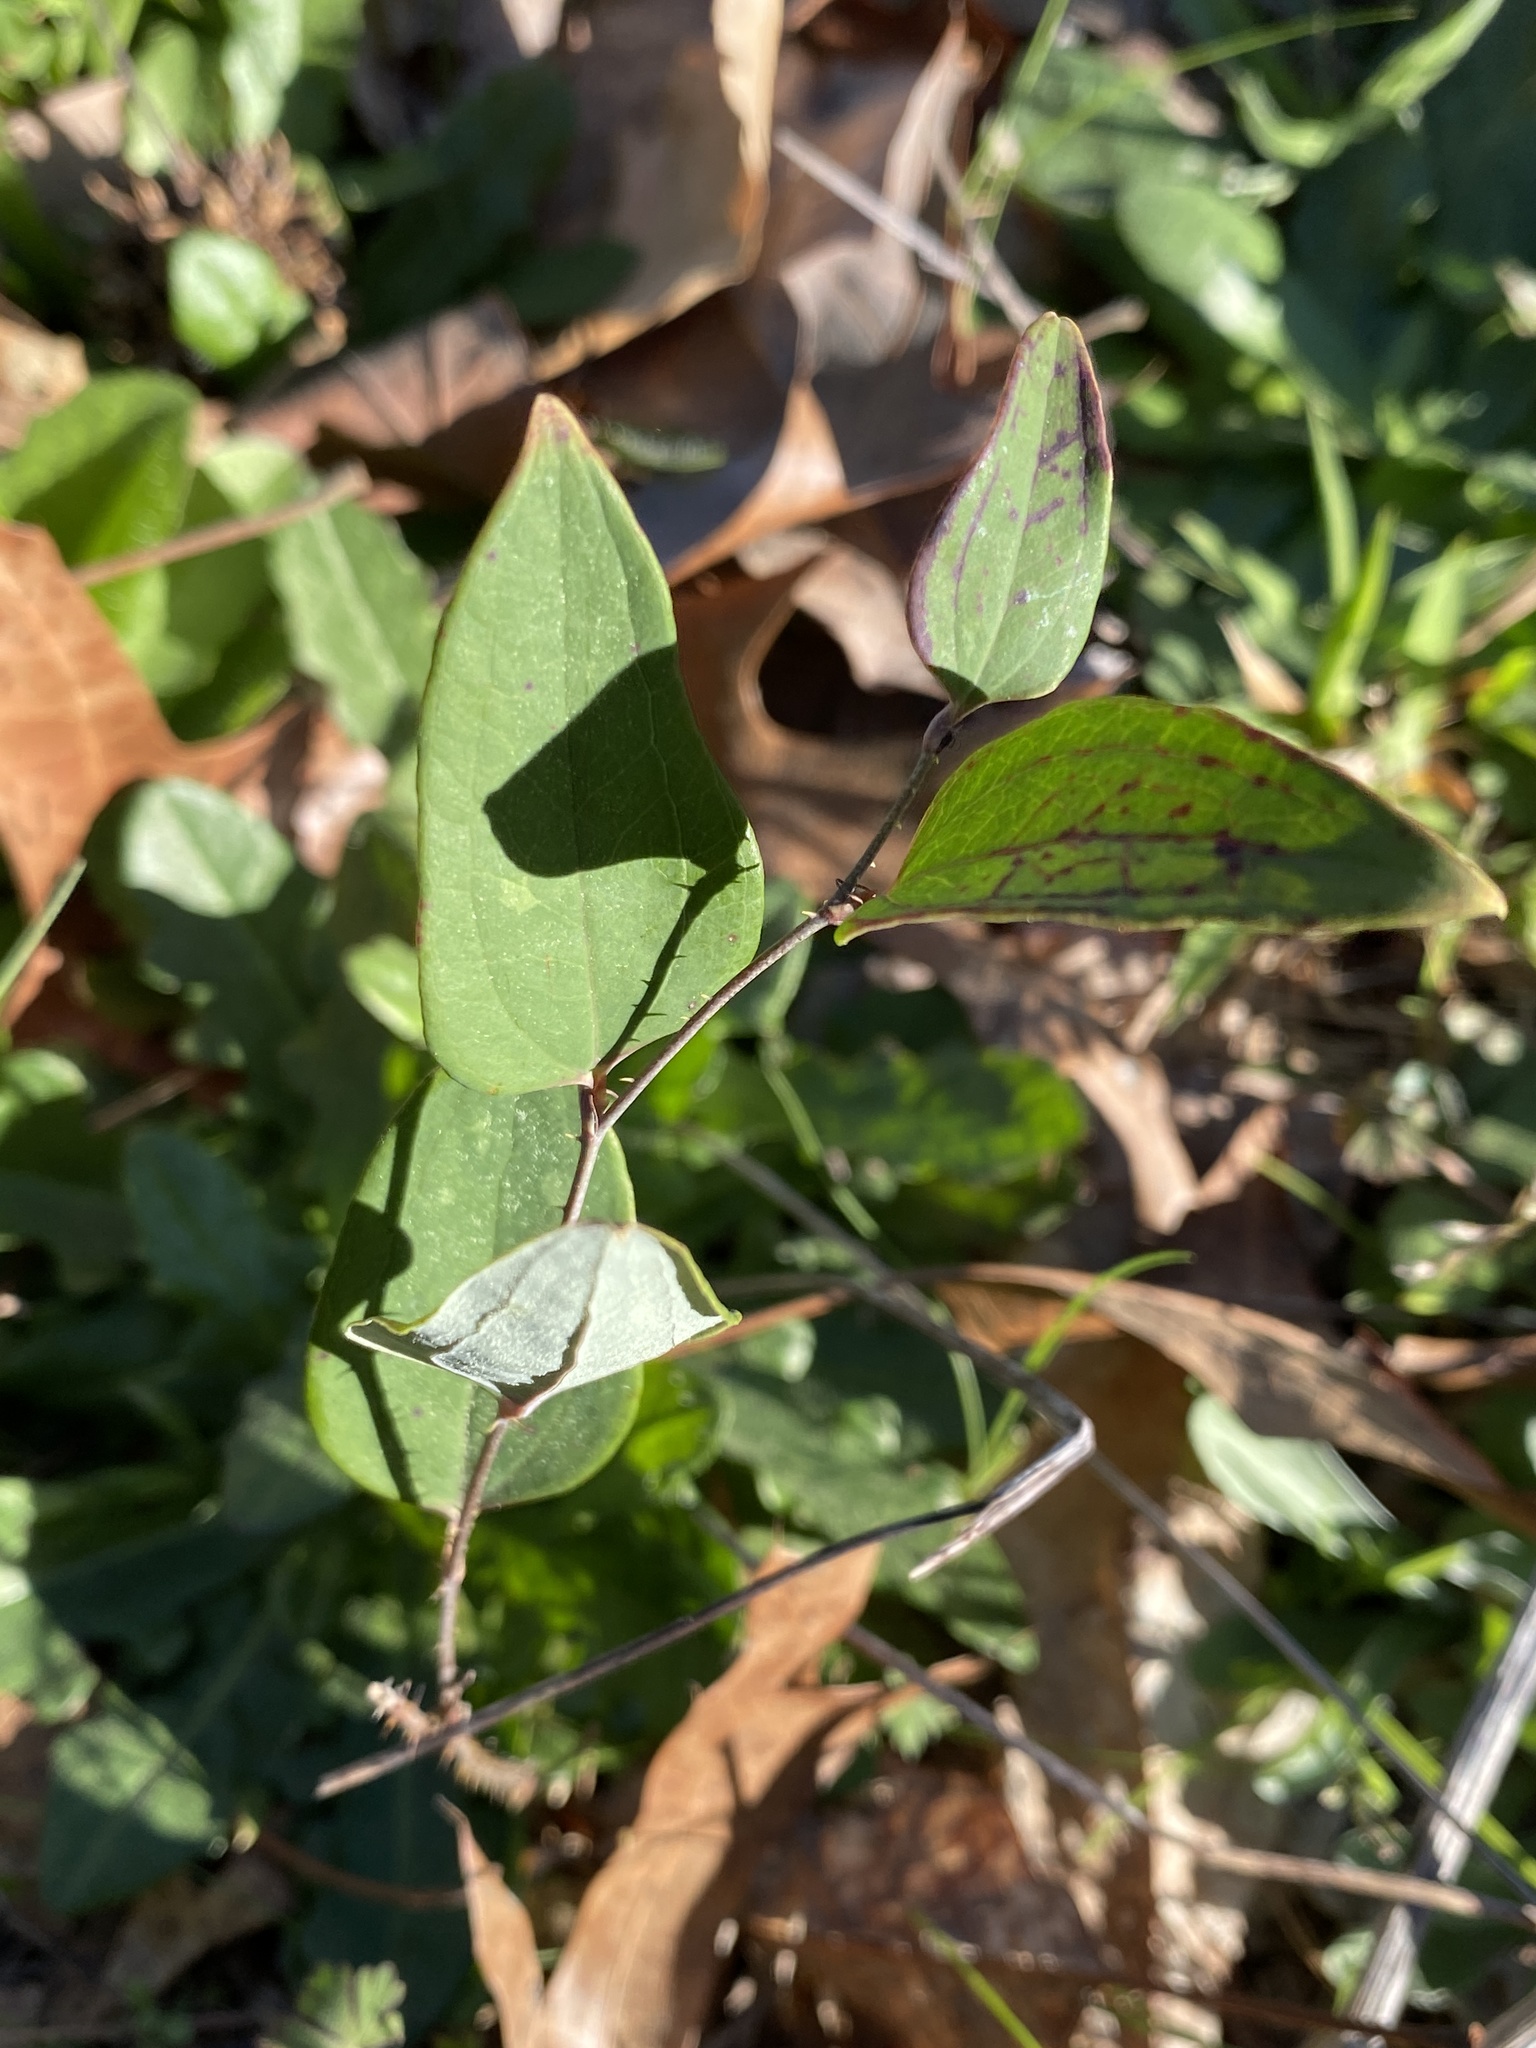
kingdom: Plantae
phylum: Tracheophyta
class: Liliopsida
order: Liliales
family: Smilacaceae
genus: Smilax
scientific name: Smilax glauca
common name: Cat greenbrier
